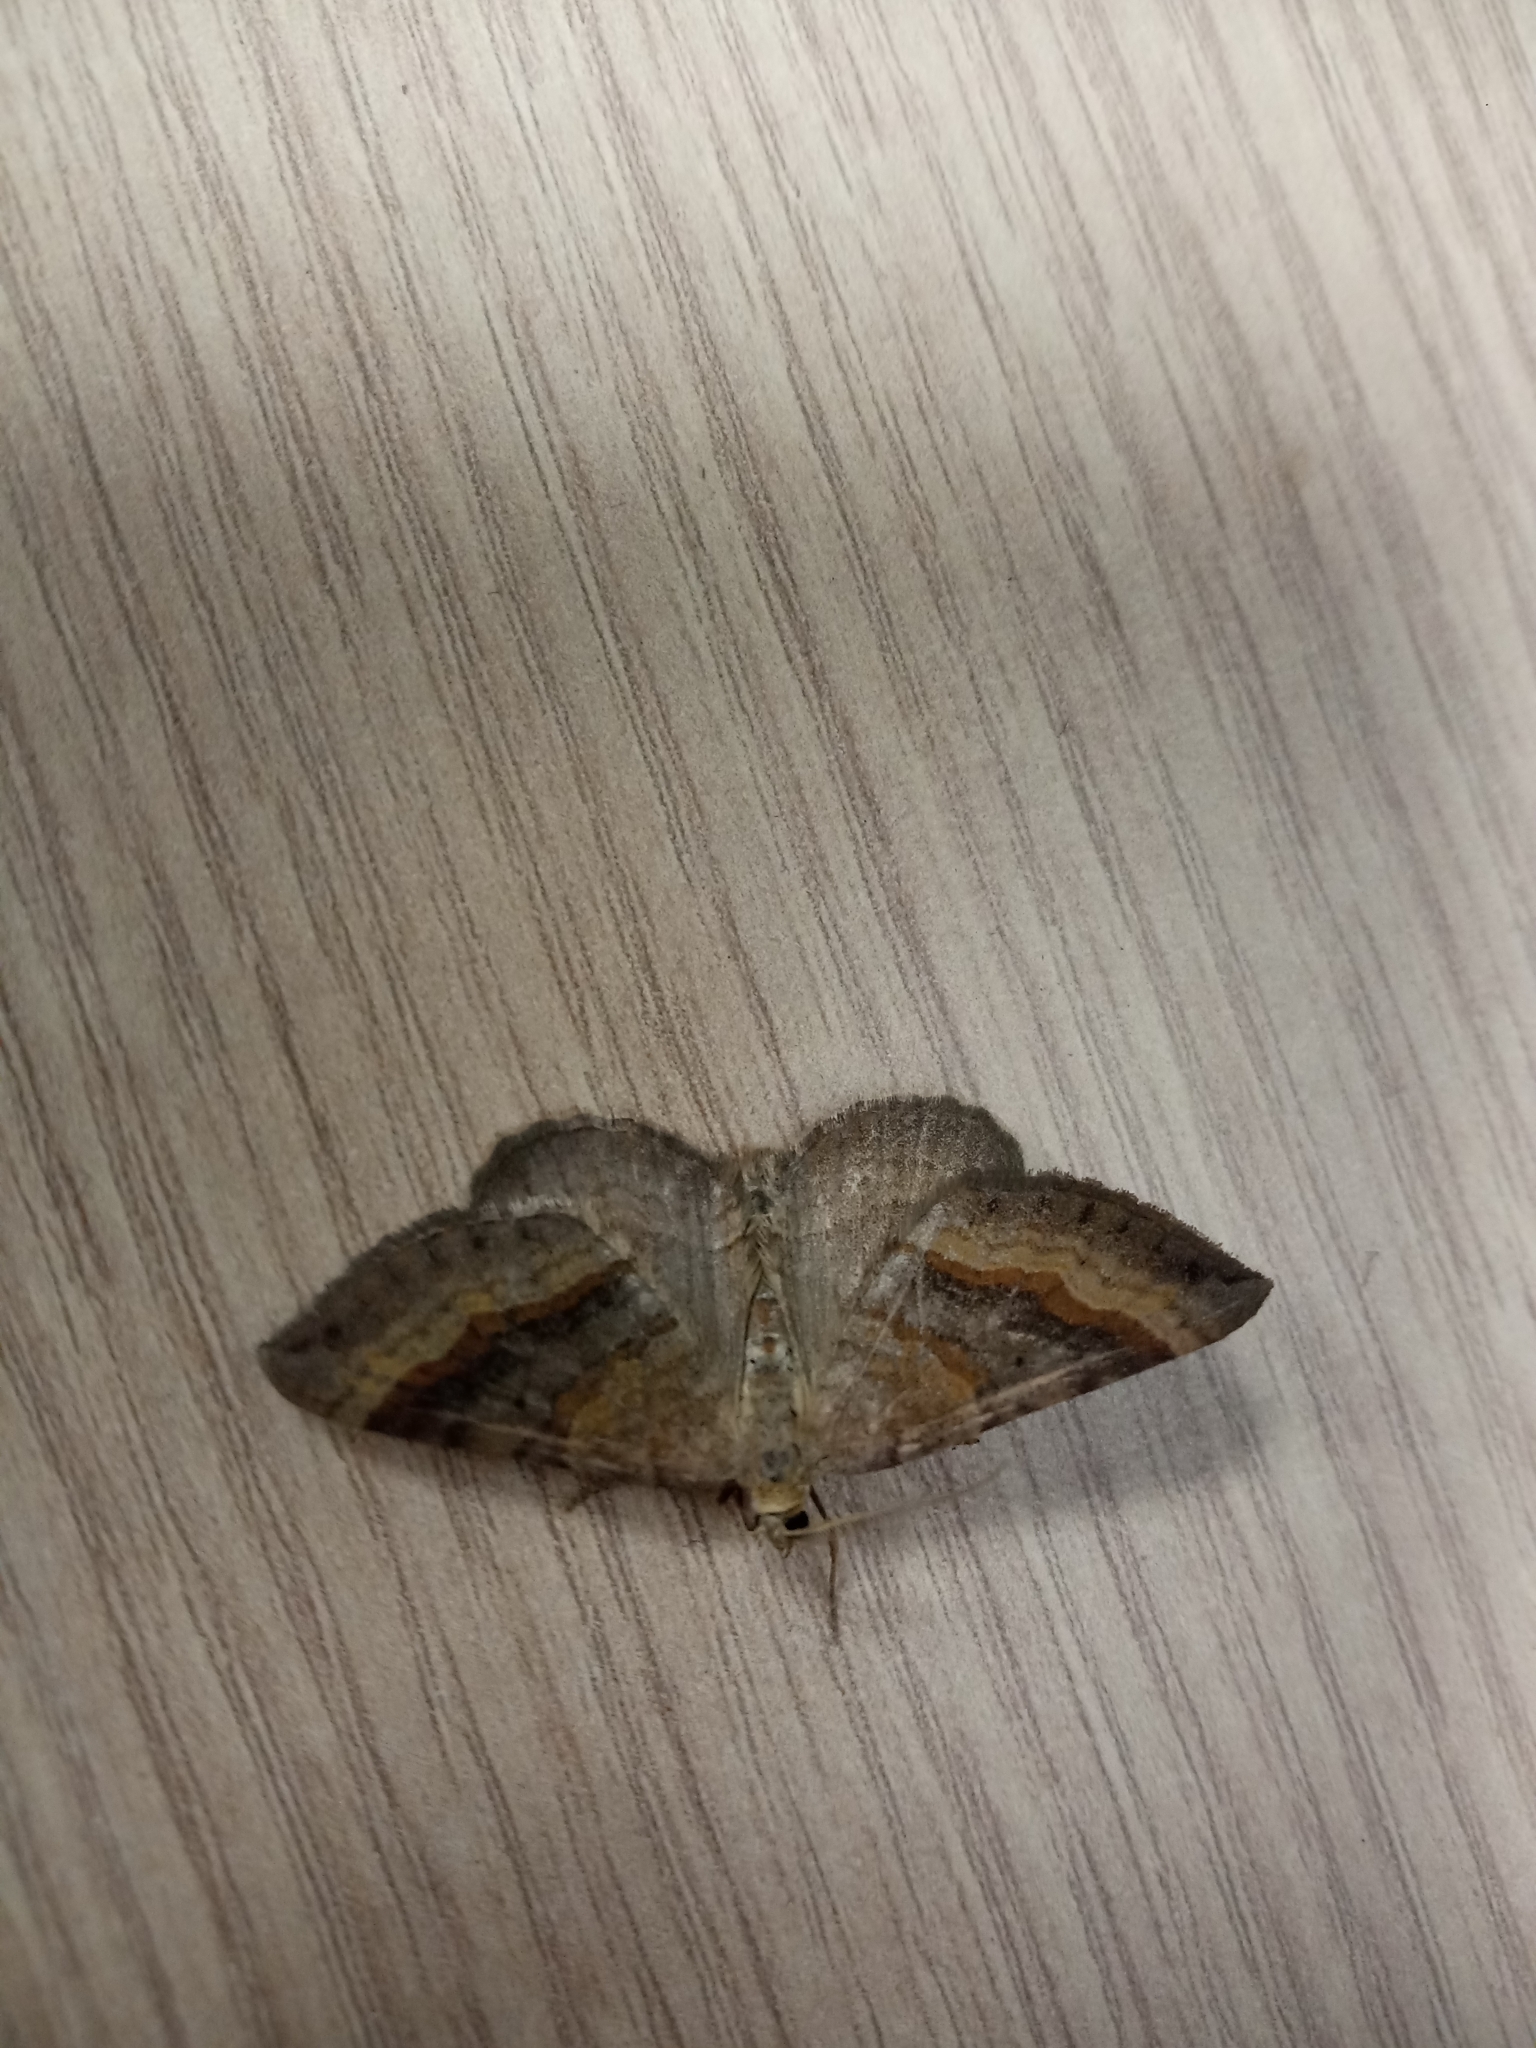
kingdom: Animalia
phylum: Arthropoda
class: Insecta
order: Lepidoptera
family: Geometridae
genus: Scotopteryx
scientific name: Scotopteryx chenopodiata
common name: Shaded broad-bar
